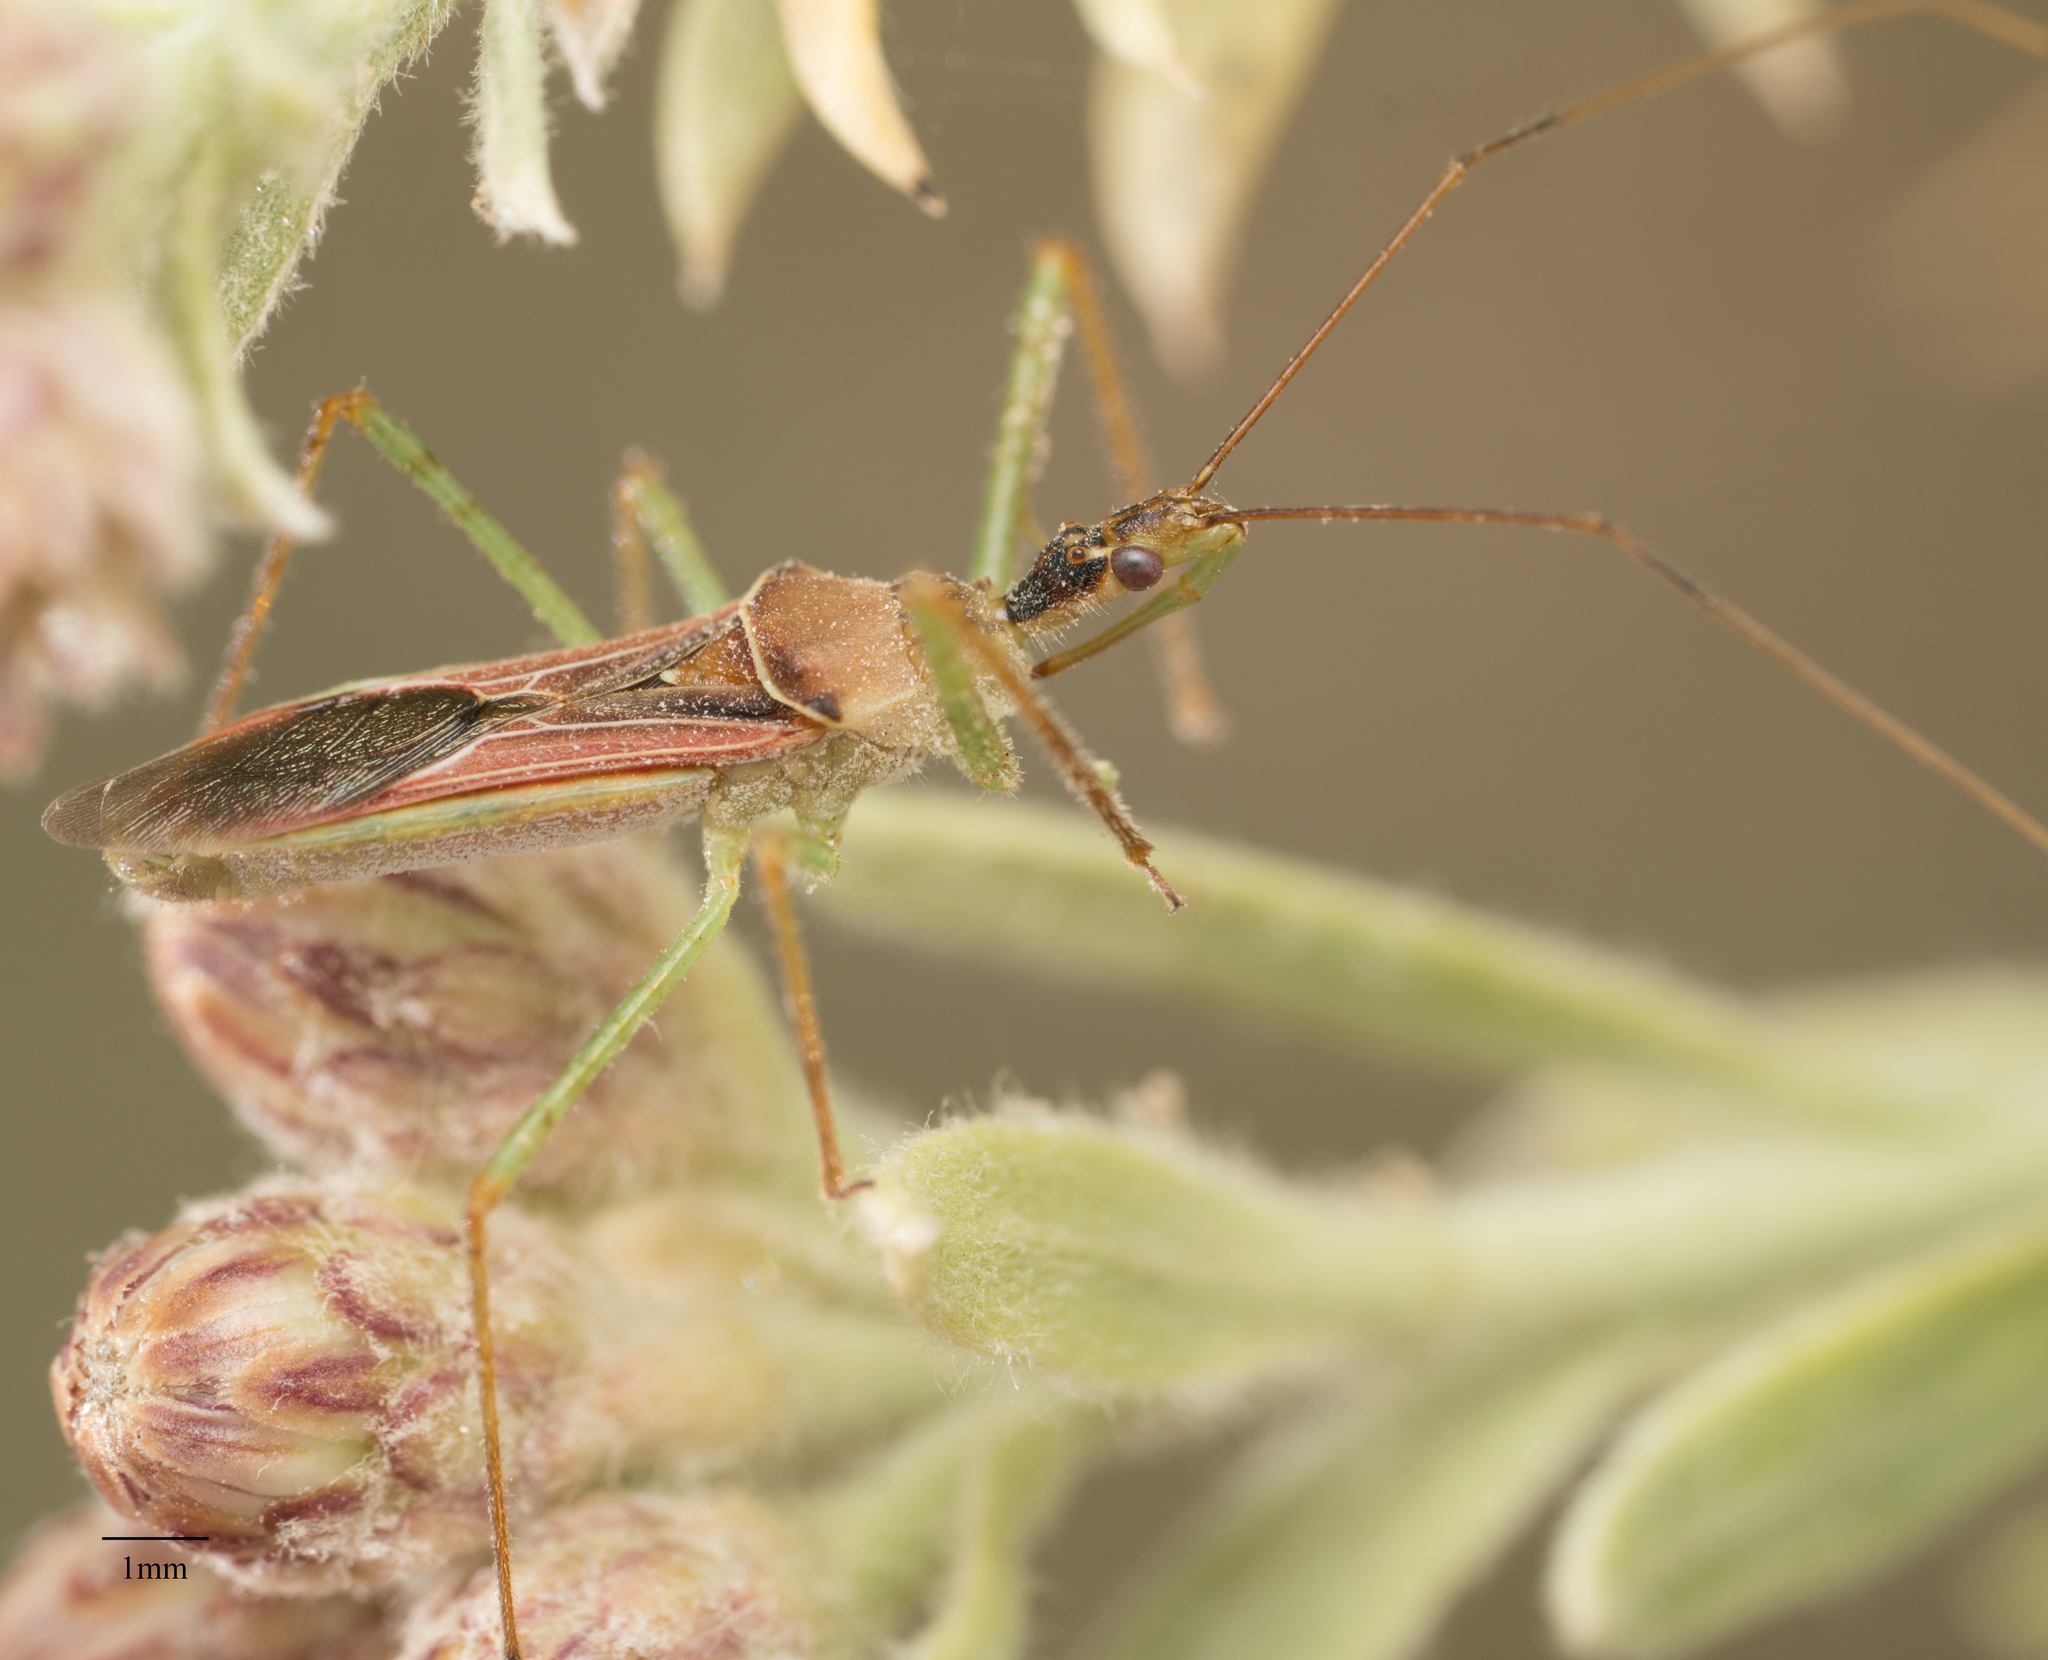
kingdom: Animalia
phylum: Arthropoda
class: Insecta
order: Hemiptera
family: Reduviidae
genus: Zelus
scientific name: Zelus renardii
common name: Assassin bug
